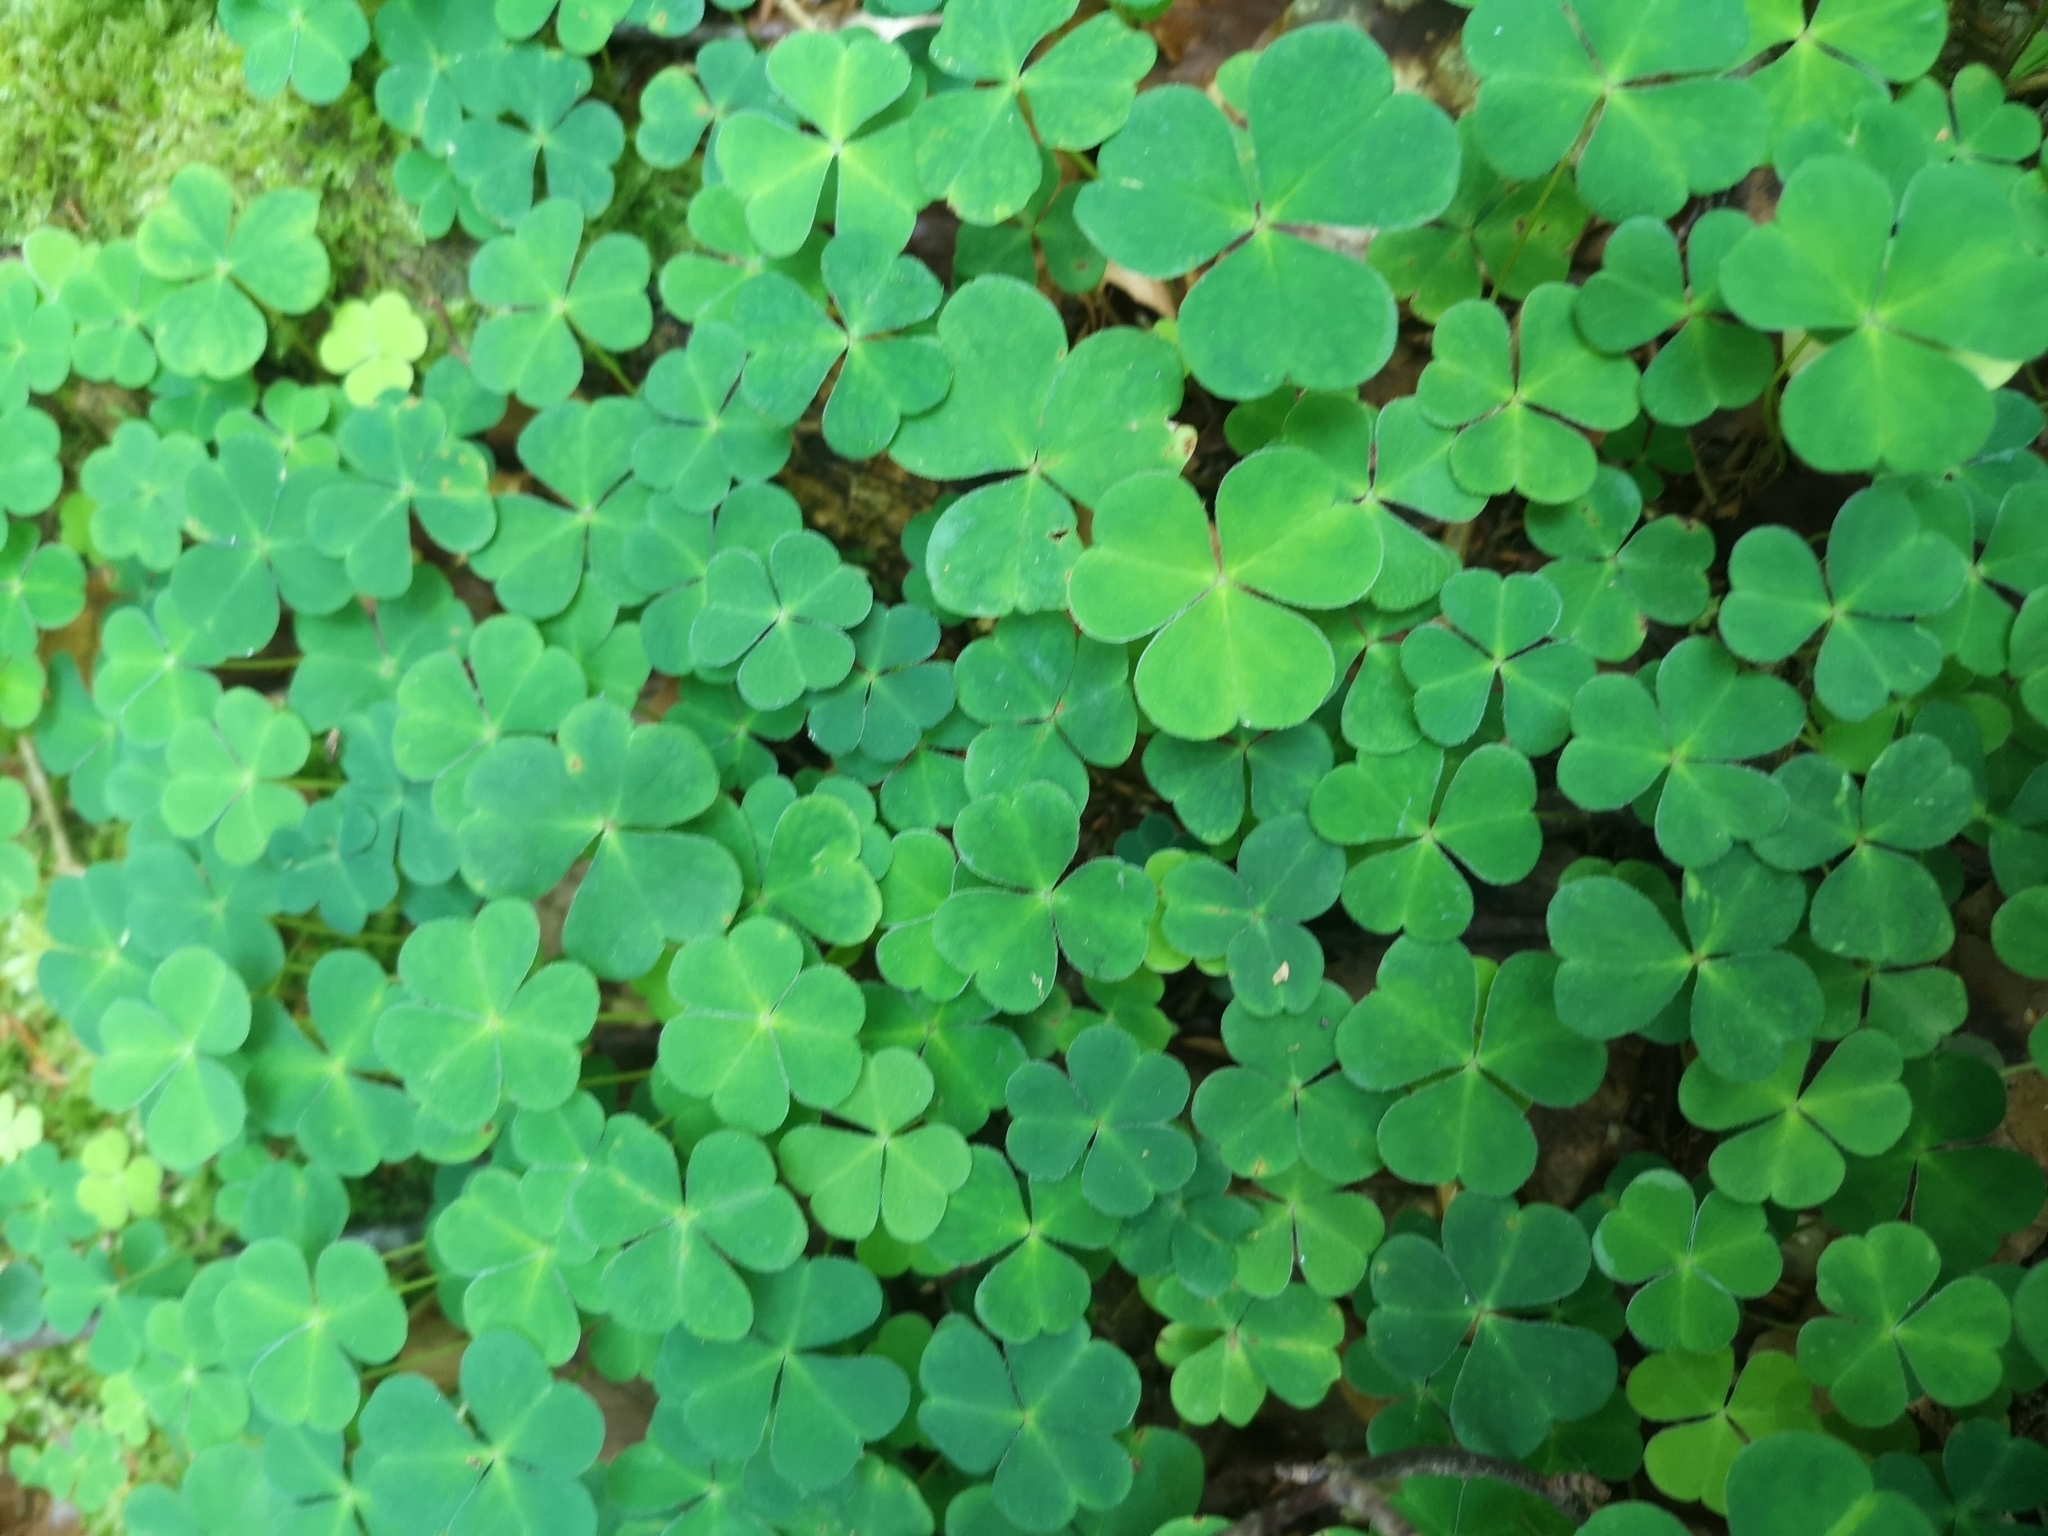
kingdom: Plantae
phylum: Tracheophyta
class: Magnoliopsida
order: Oxalidales
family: Oxalidaceae
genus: Oxalis
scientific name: Oxalis acetosella
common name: Wood-sorrel
